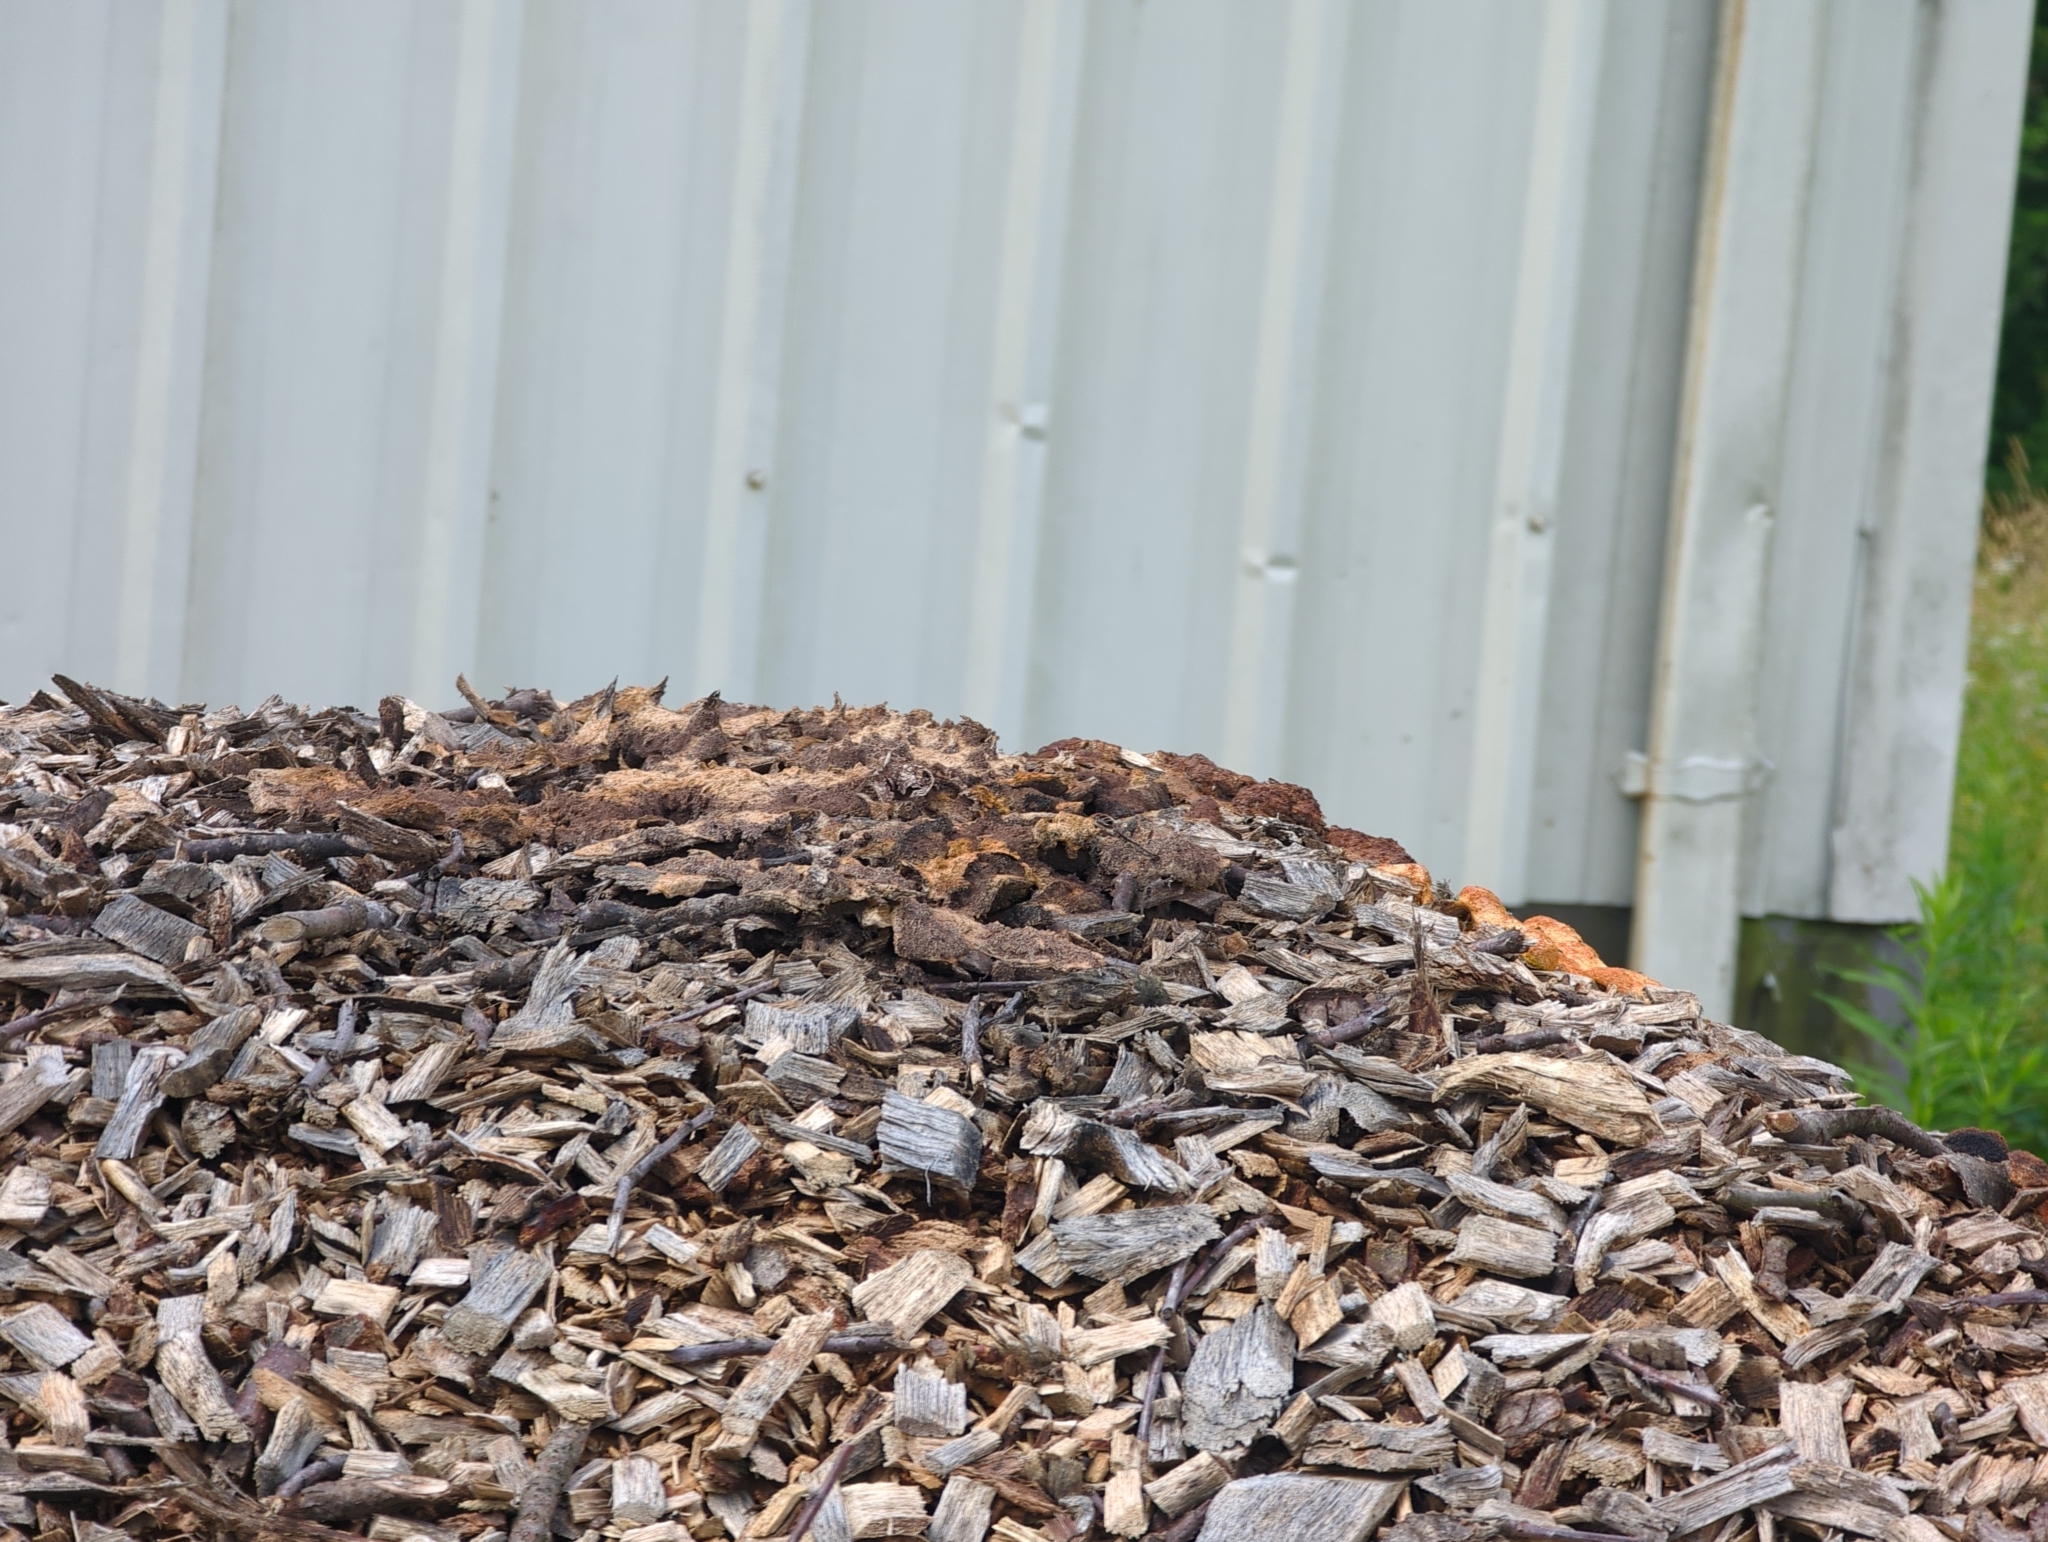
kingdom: Protozoa
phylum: Mycetozoa
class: Myxomycetes
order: Physarales
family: Physaraceae
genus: Fuligo
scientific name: Fuligo septica
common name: Dog vomit slime mold
